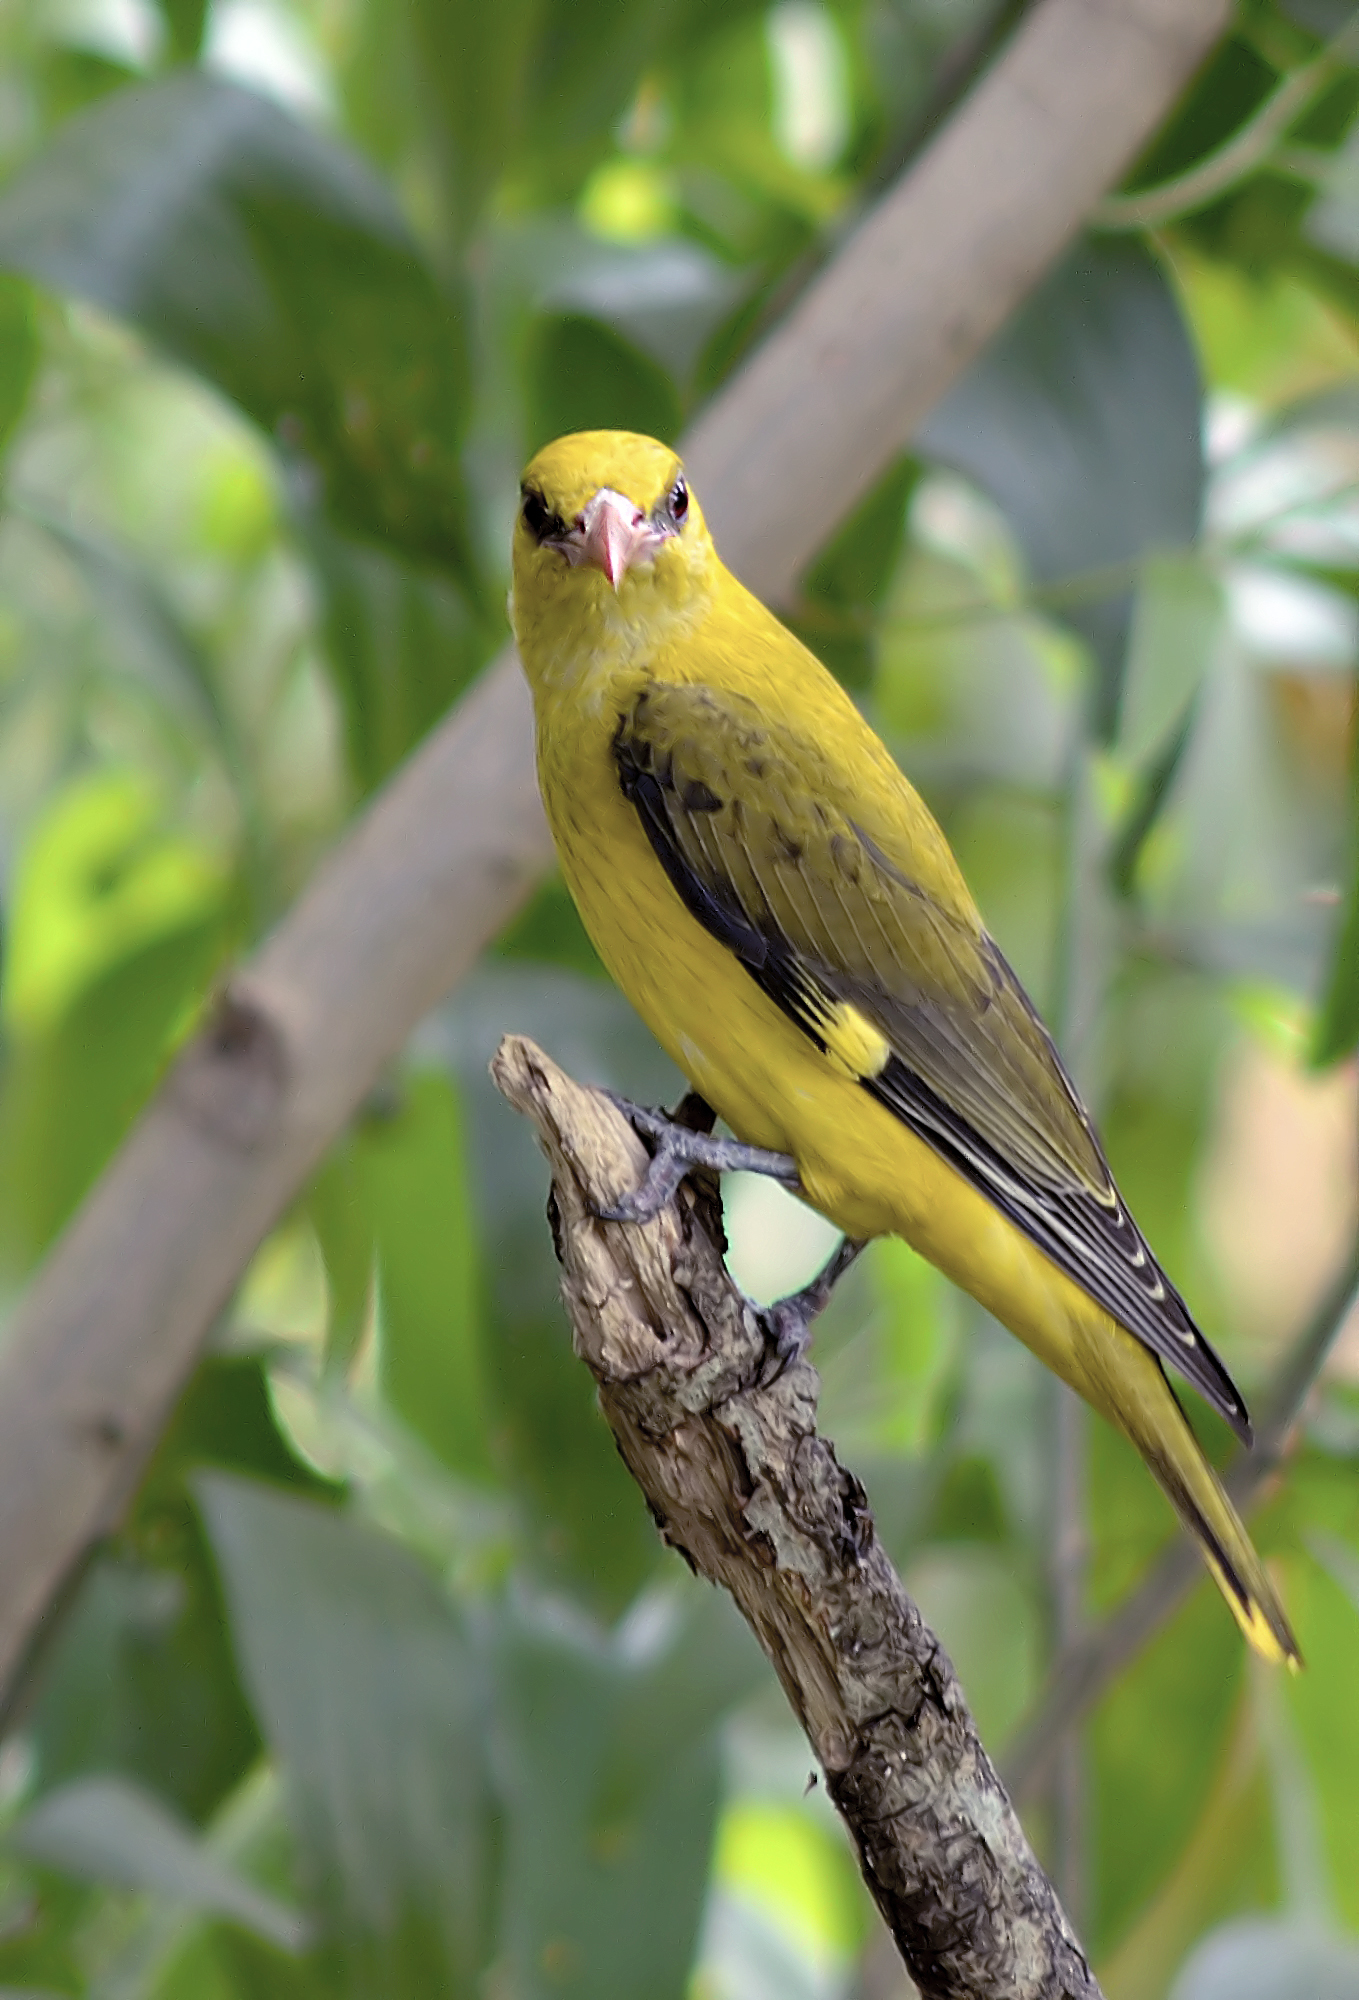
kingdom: Animalia
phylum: Chordata
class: Aves
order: Passeriformes
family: Oriolidae
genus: Oriolus
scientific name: Oriolus kundoo
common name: Indian golden oriole
